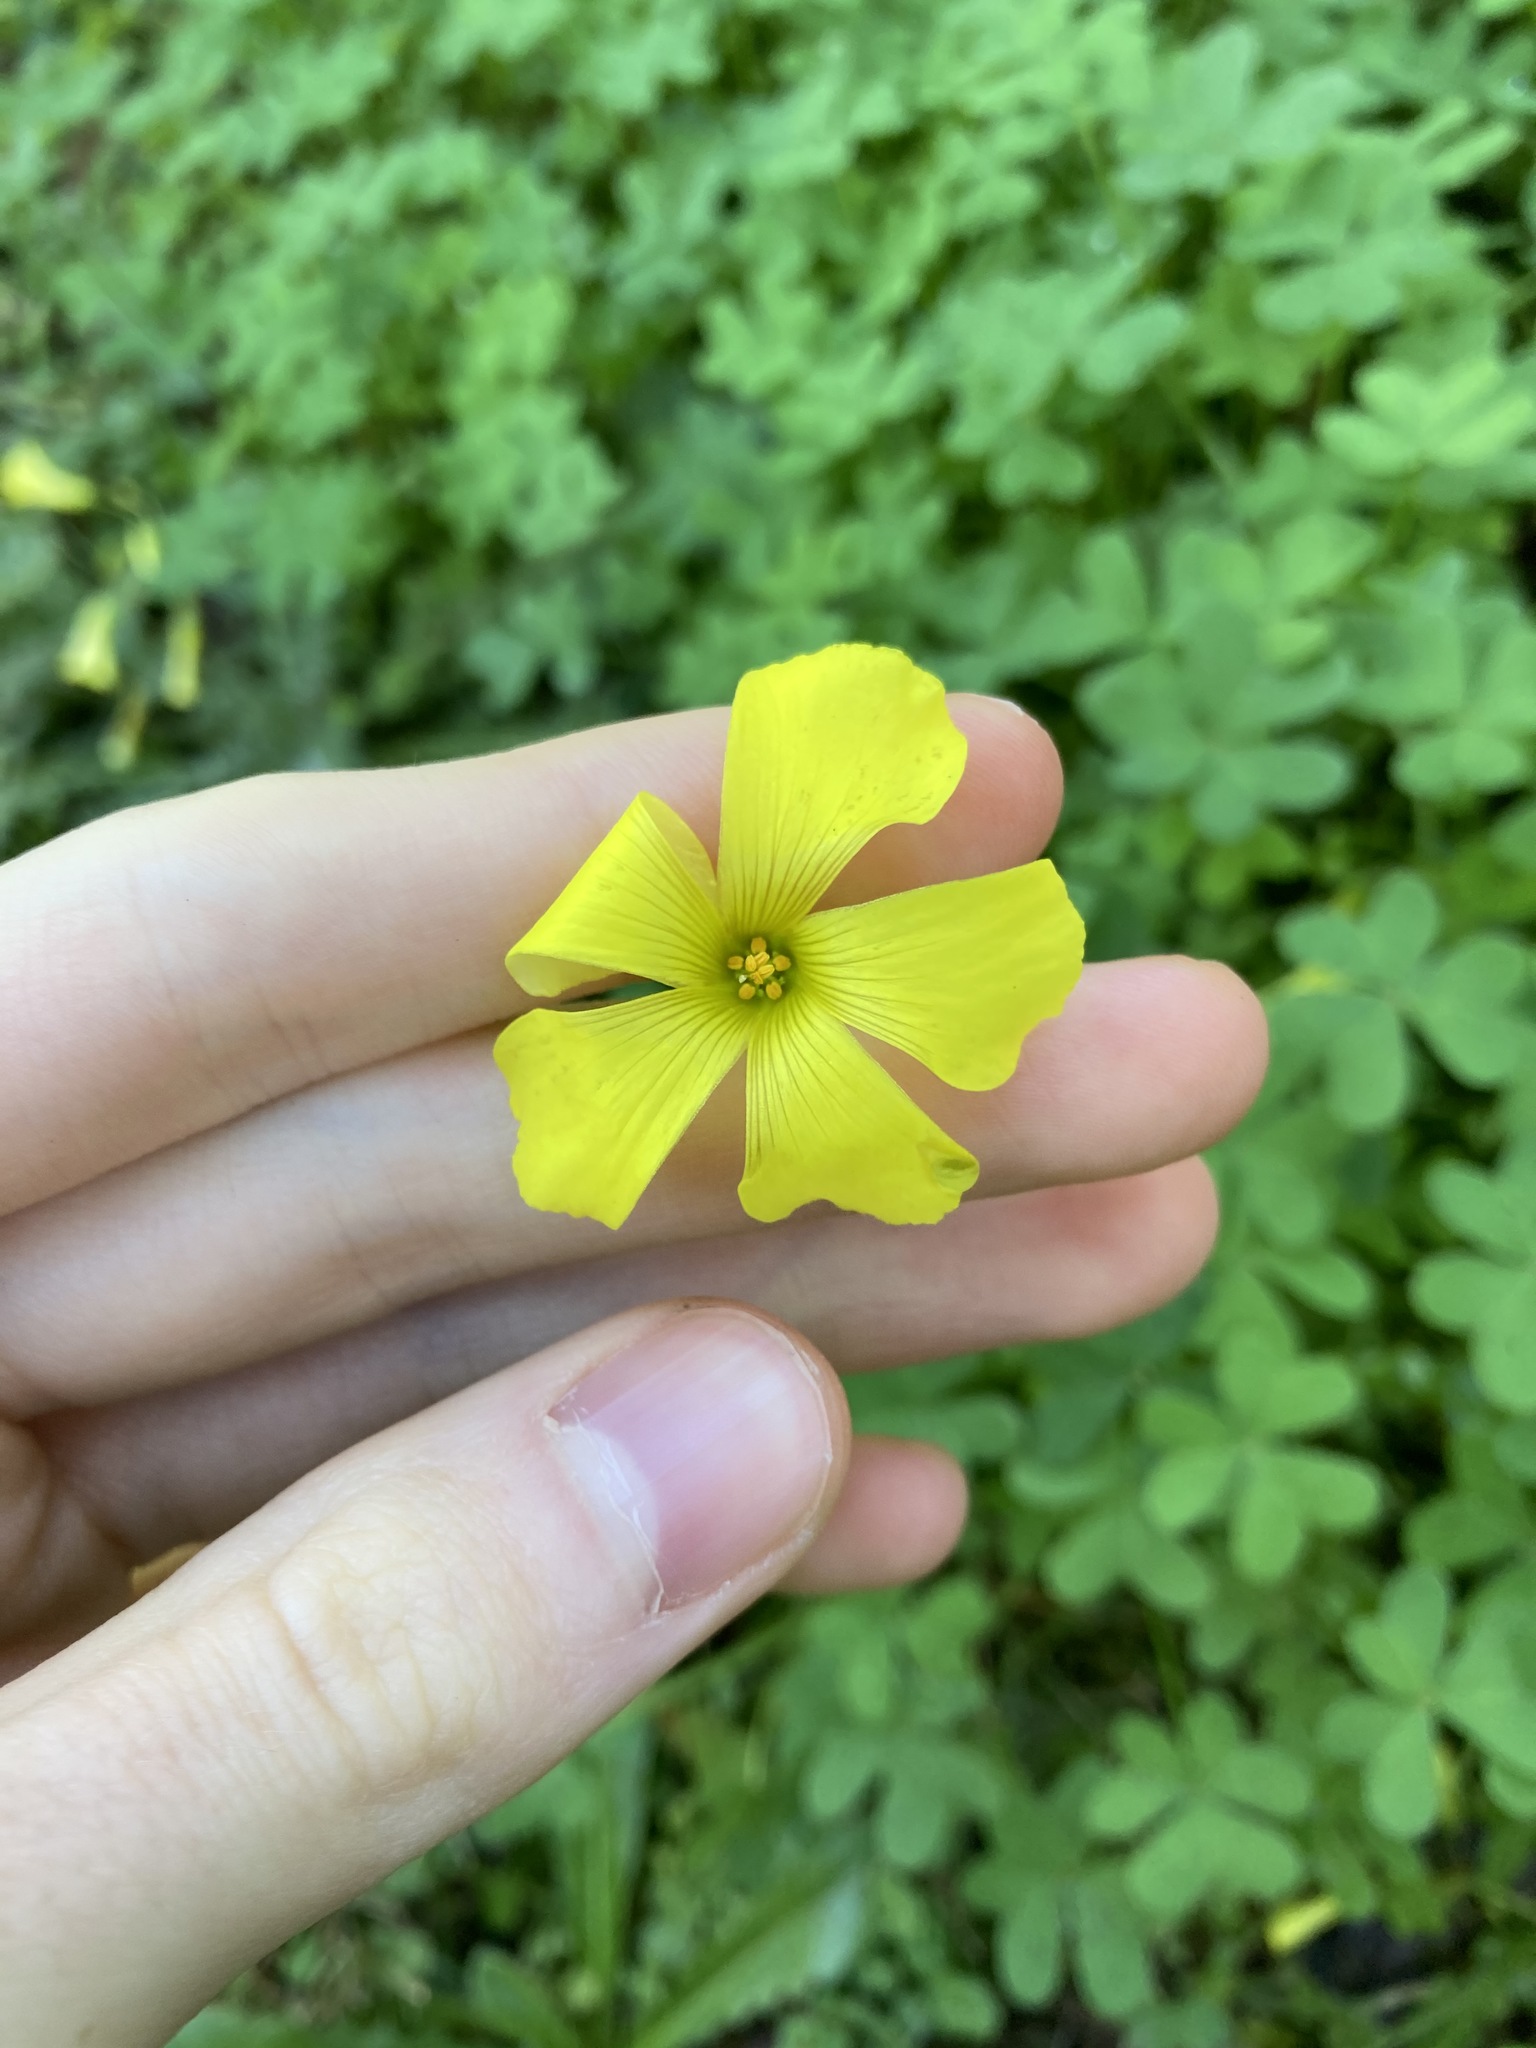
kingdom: Plantae
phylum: Tracheophyta
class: Magnoliopsida
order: Oxalidales
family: Oxalidaceae
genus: Oxalis
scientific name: Oxalis pes-caprae
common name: Bermuda-buttercup
